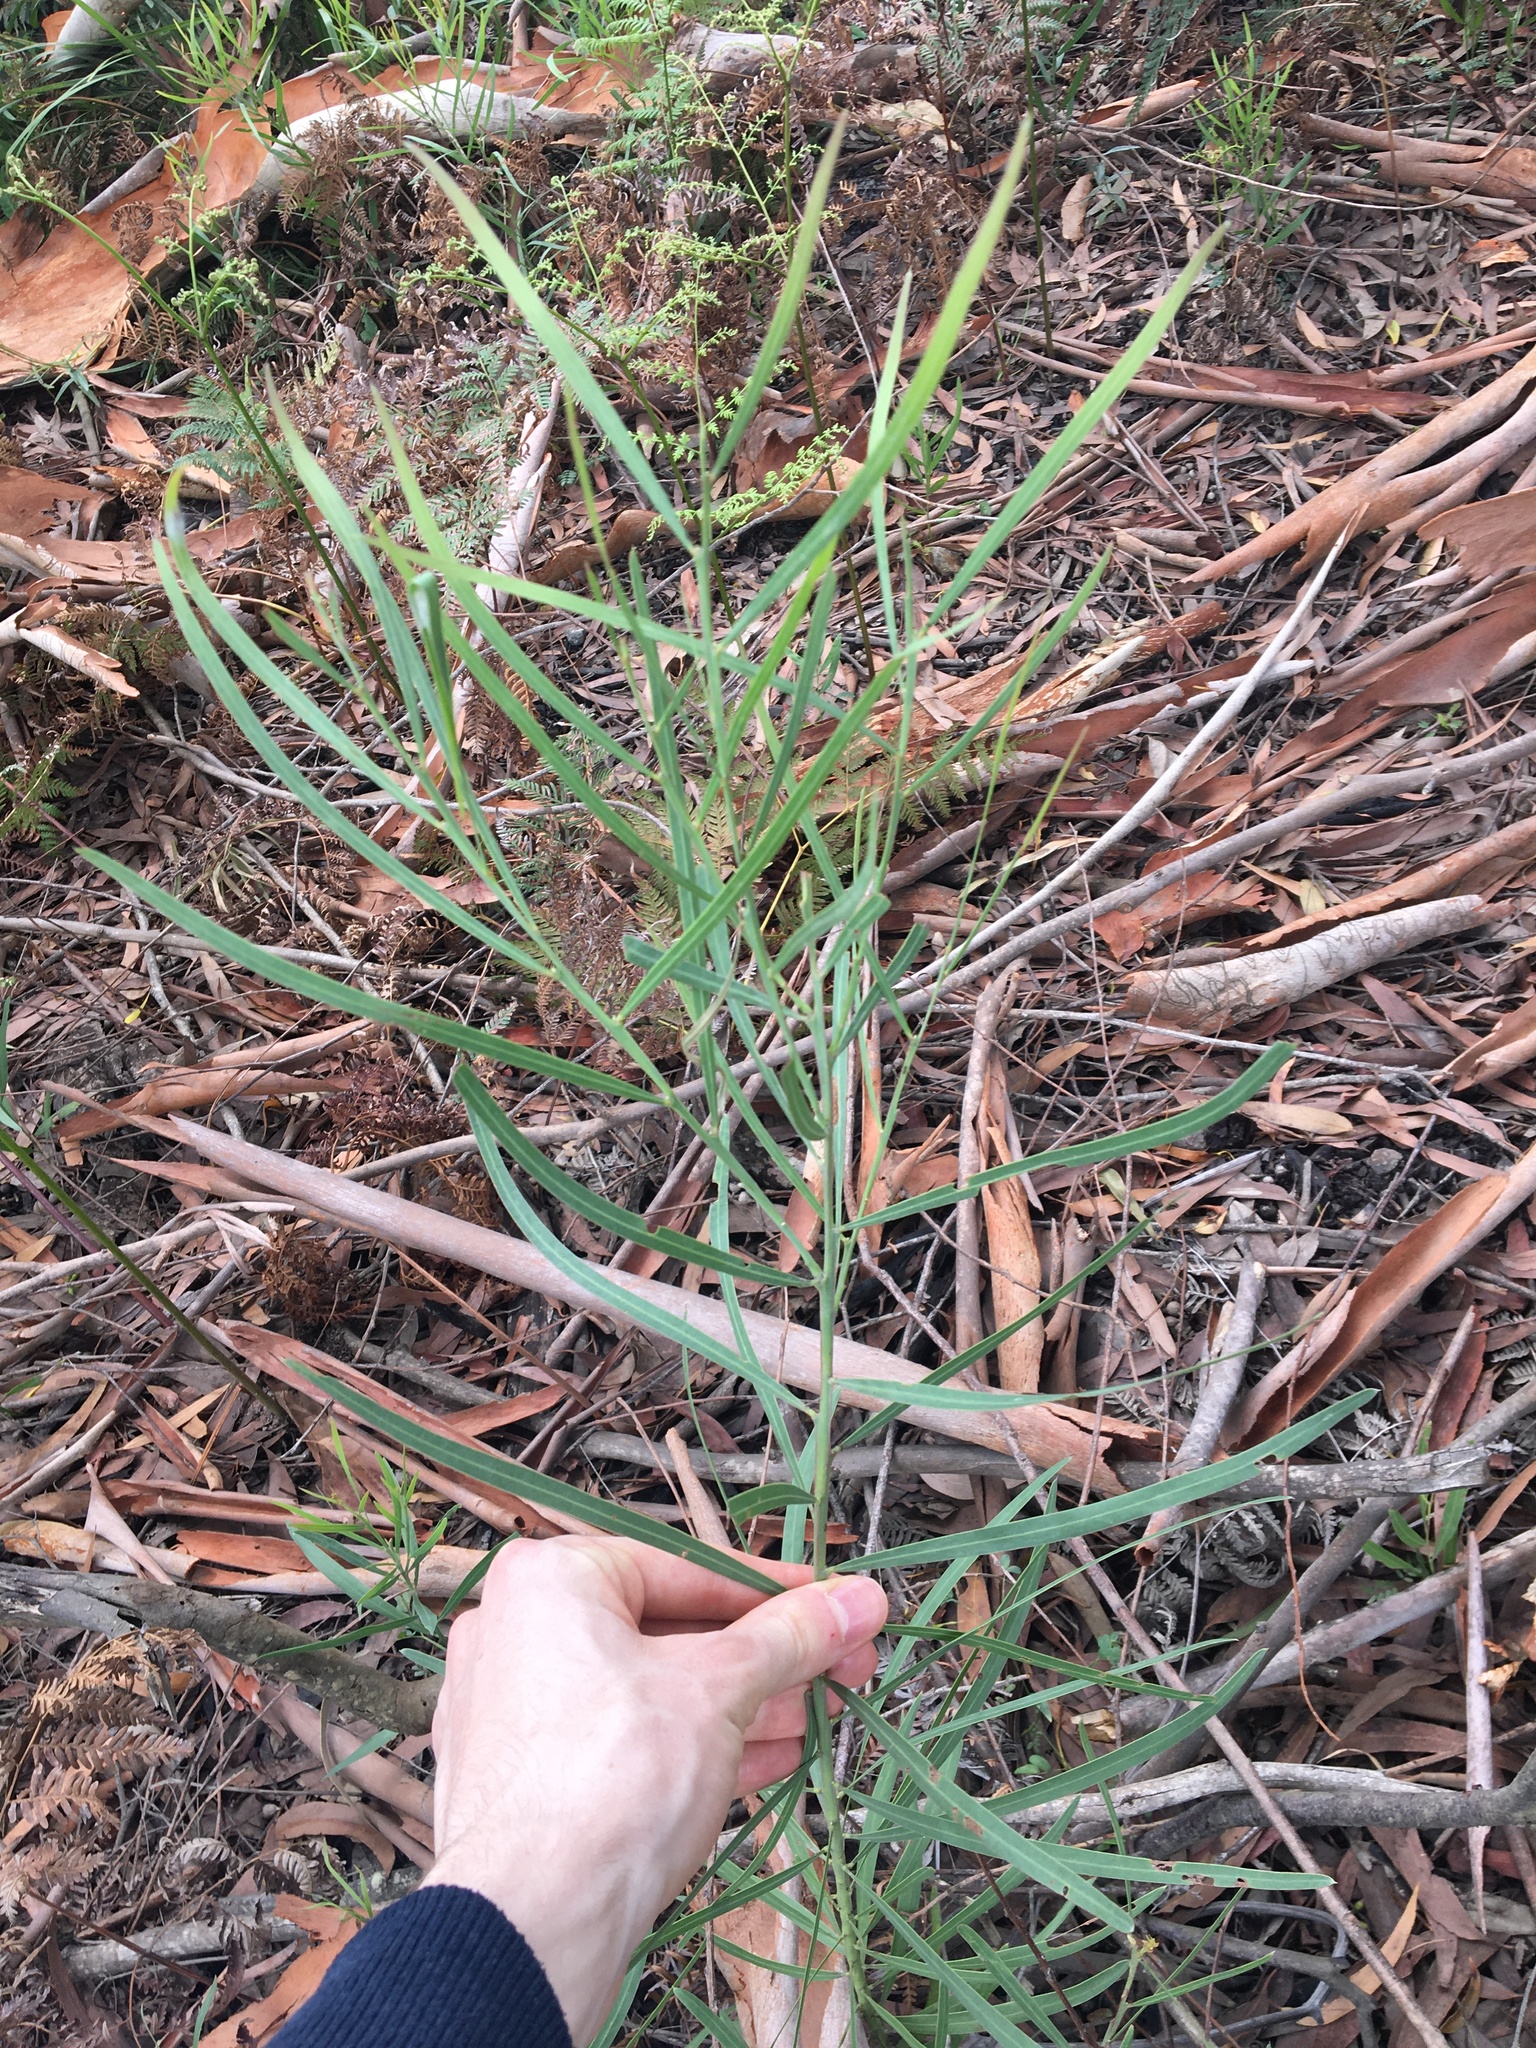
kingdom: Plantae
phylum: Tracheophyta
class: Magnoliopsida
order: Fabales
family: Fabaceae
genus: Acacia
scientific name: Acacia suaveolens
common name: Sweet acacia
